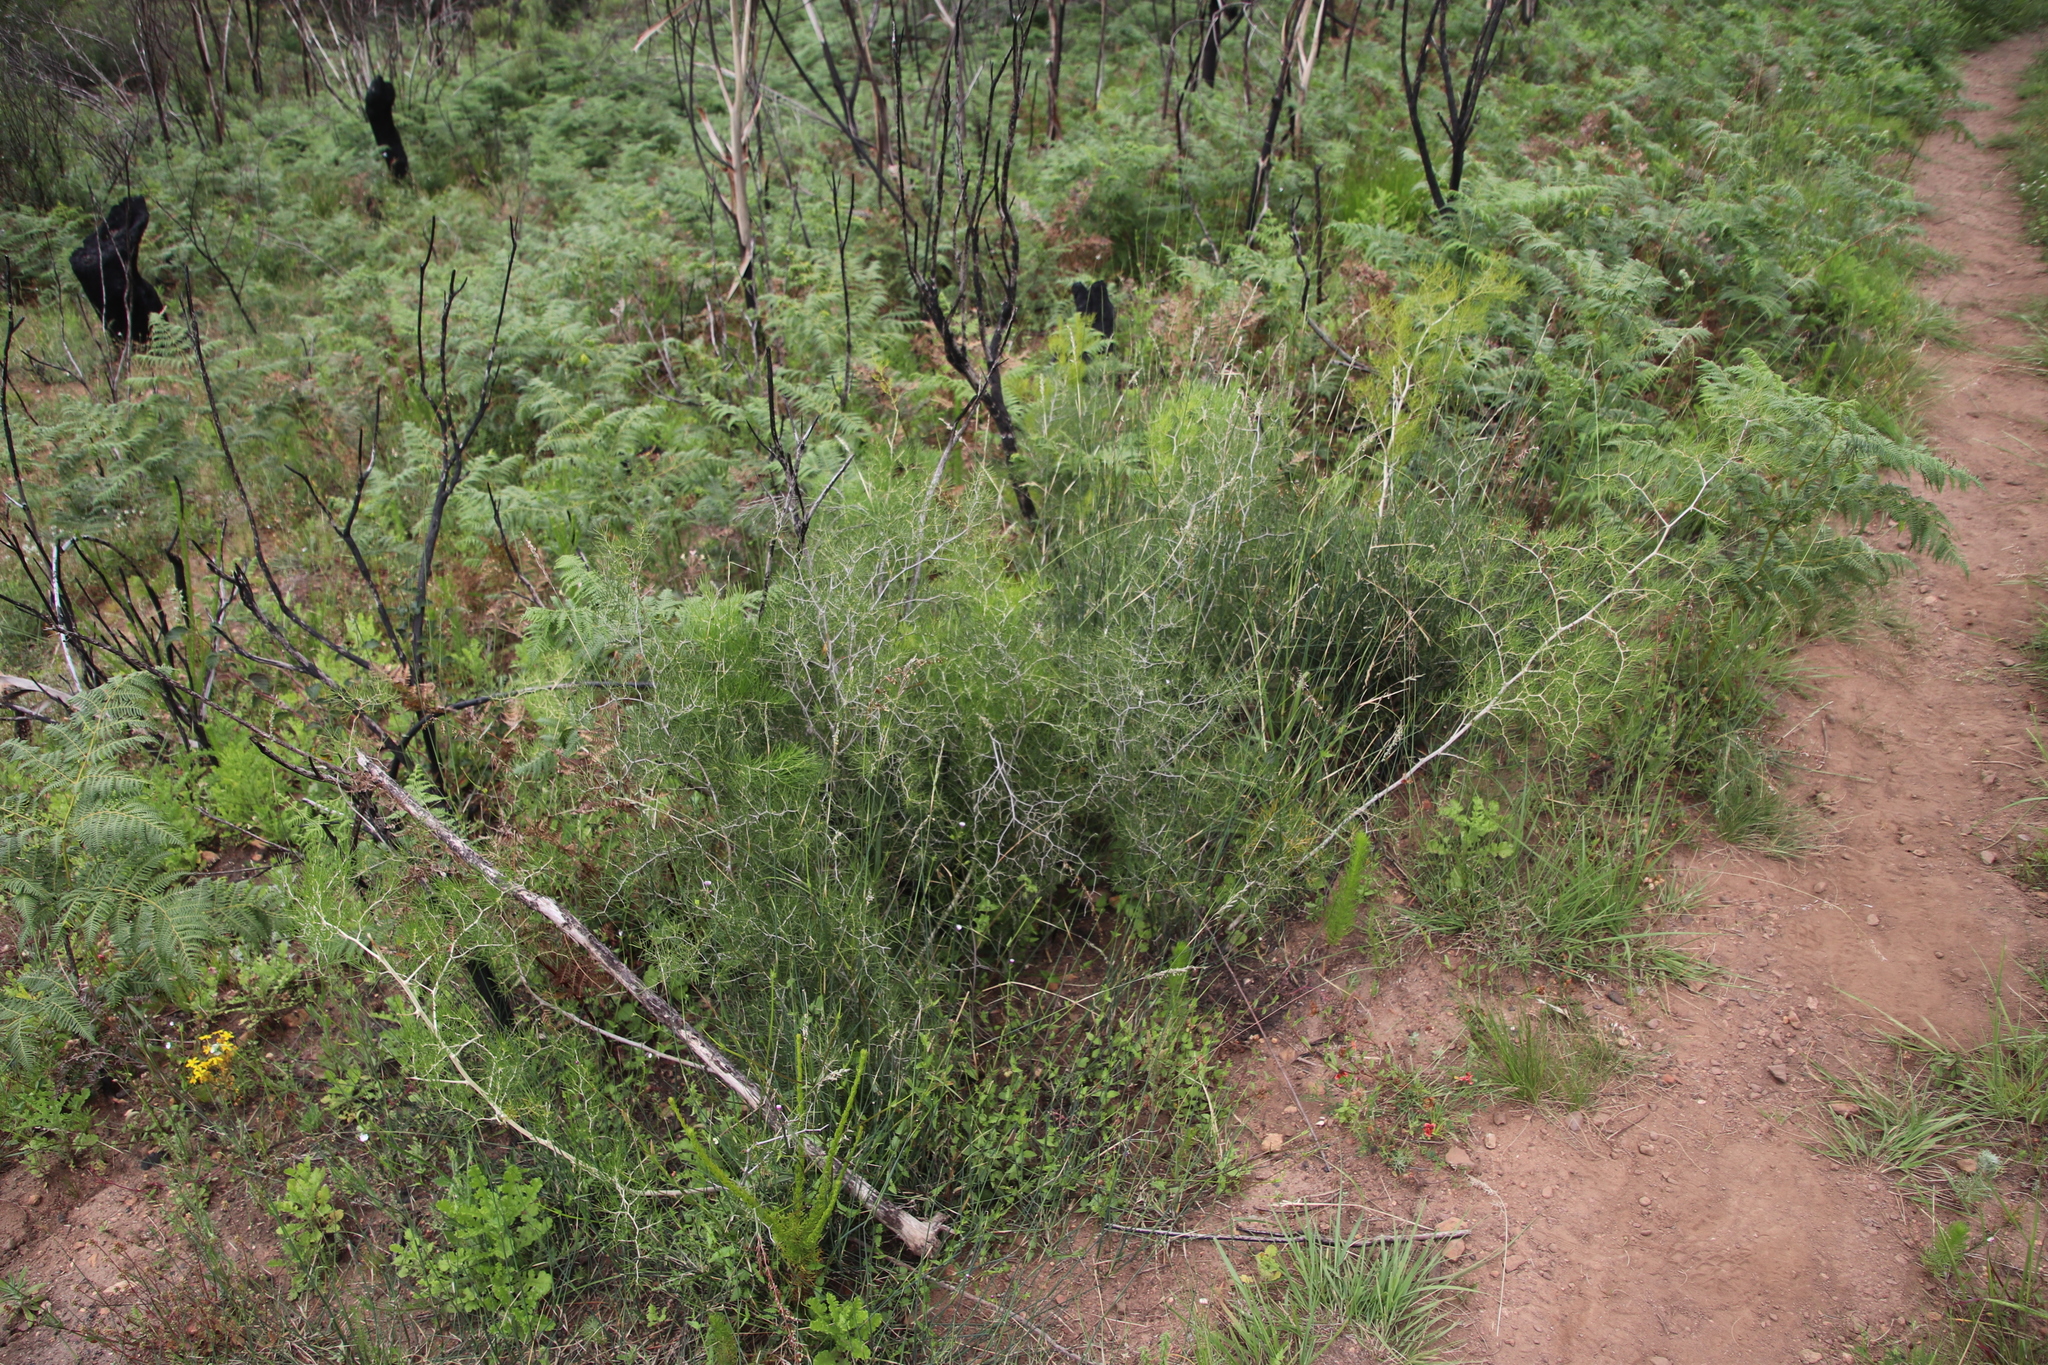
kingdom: Plantae
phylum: Tracheophyta
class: Liliopsida
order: Asparagales
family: Asparagaceae
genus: Asparagus
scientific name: Asparagus lignosus
